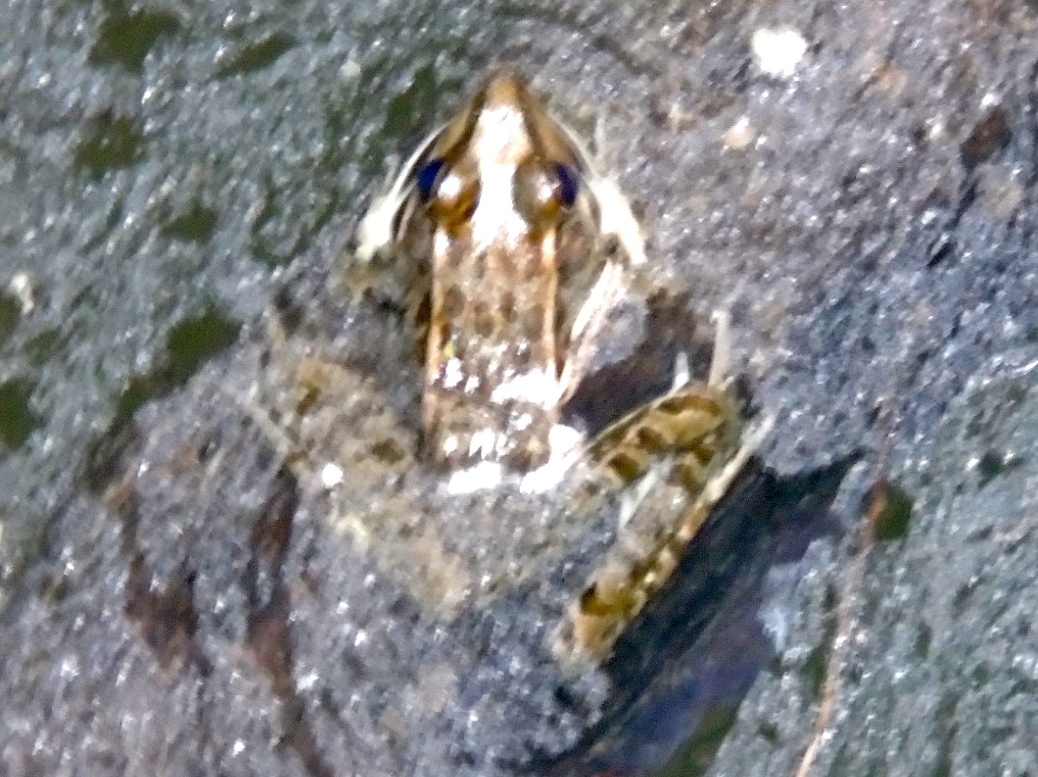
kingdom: Animalia
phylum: Chordata
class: Amphibia
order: Anura
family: Ranidae
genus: Lithobates
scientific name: Lithobates magnaocularis
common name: Northwest mexico leopard frog
